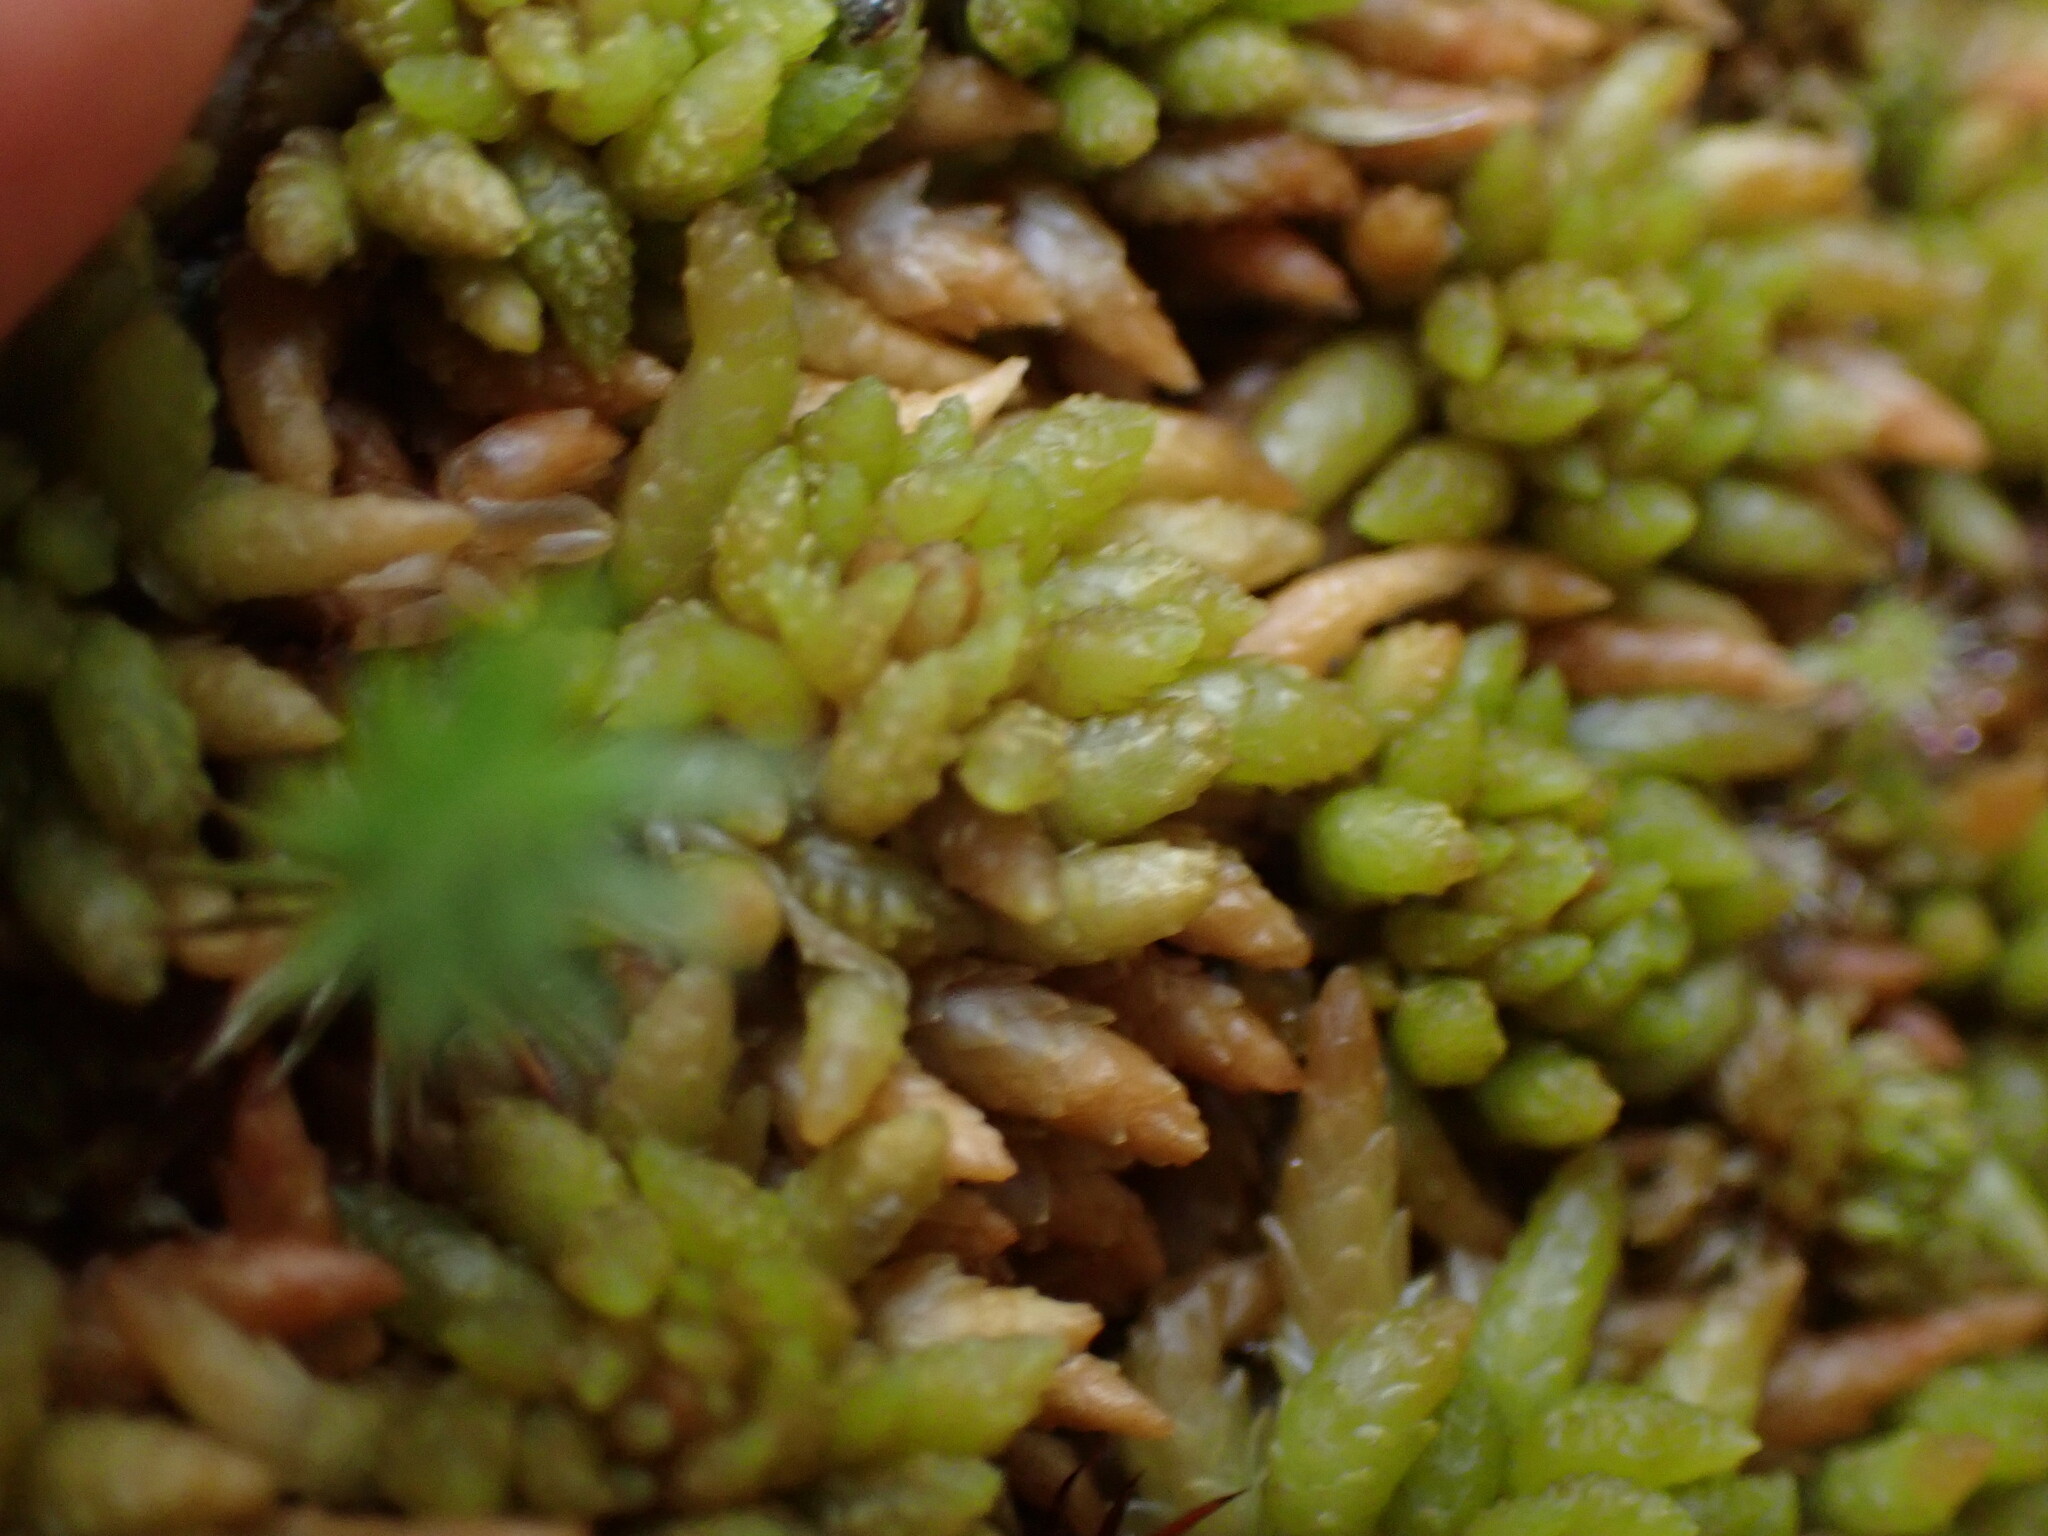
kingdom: Plantae
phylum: Bryophyta
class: Sphagnopsida
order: Sphagnales
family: Sphagnaceae
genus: Sphagnum
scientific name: Sphagnum austinii
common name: Austin's peat moss
